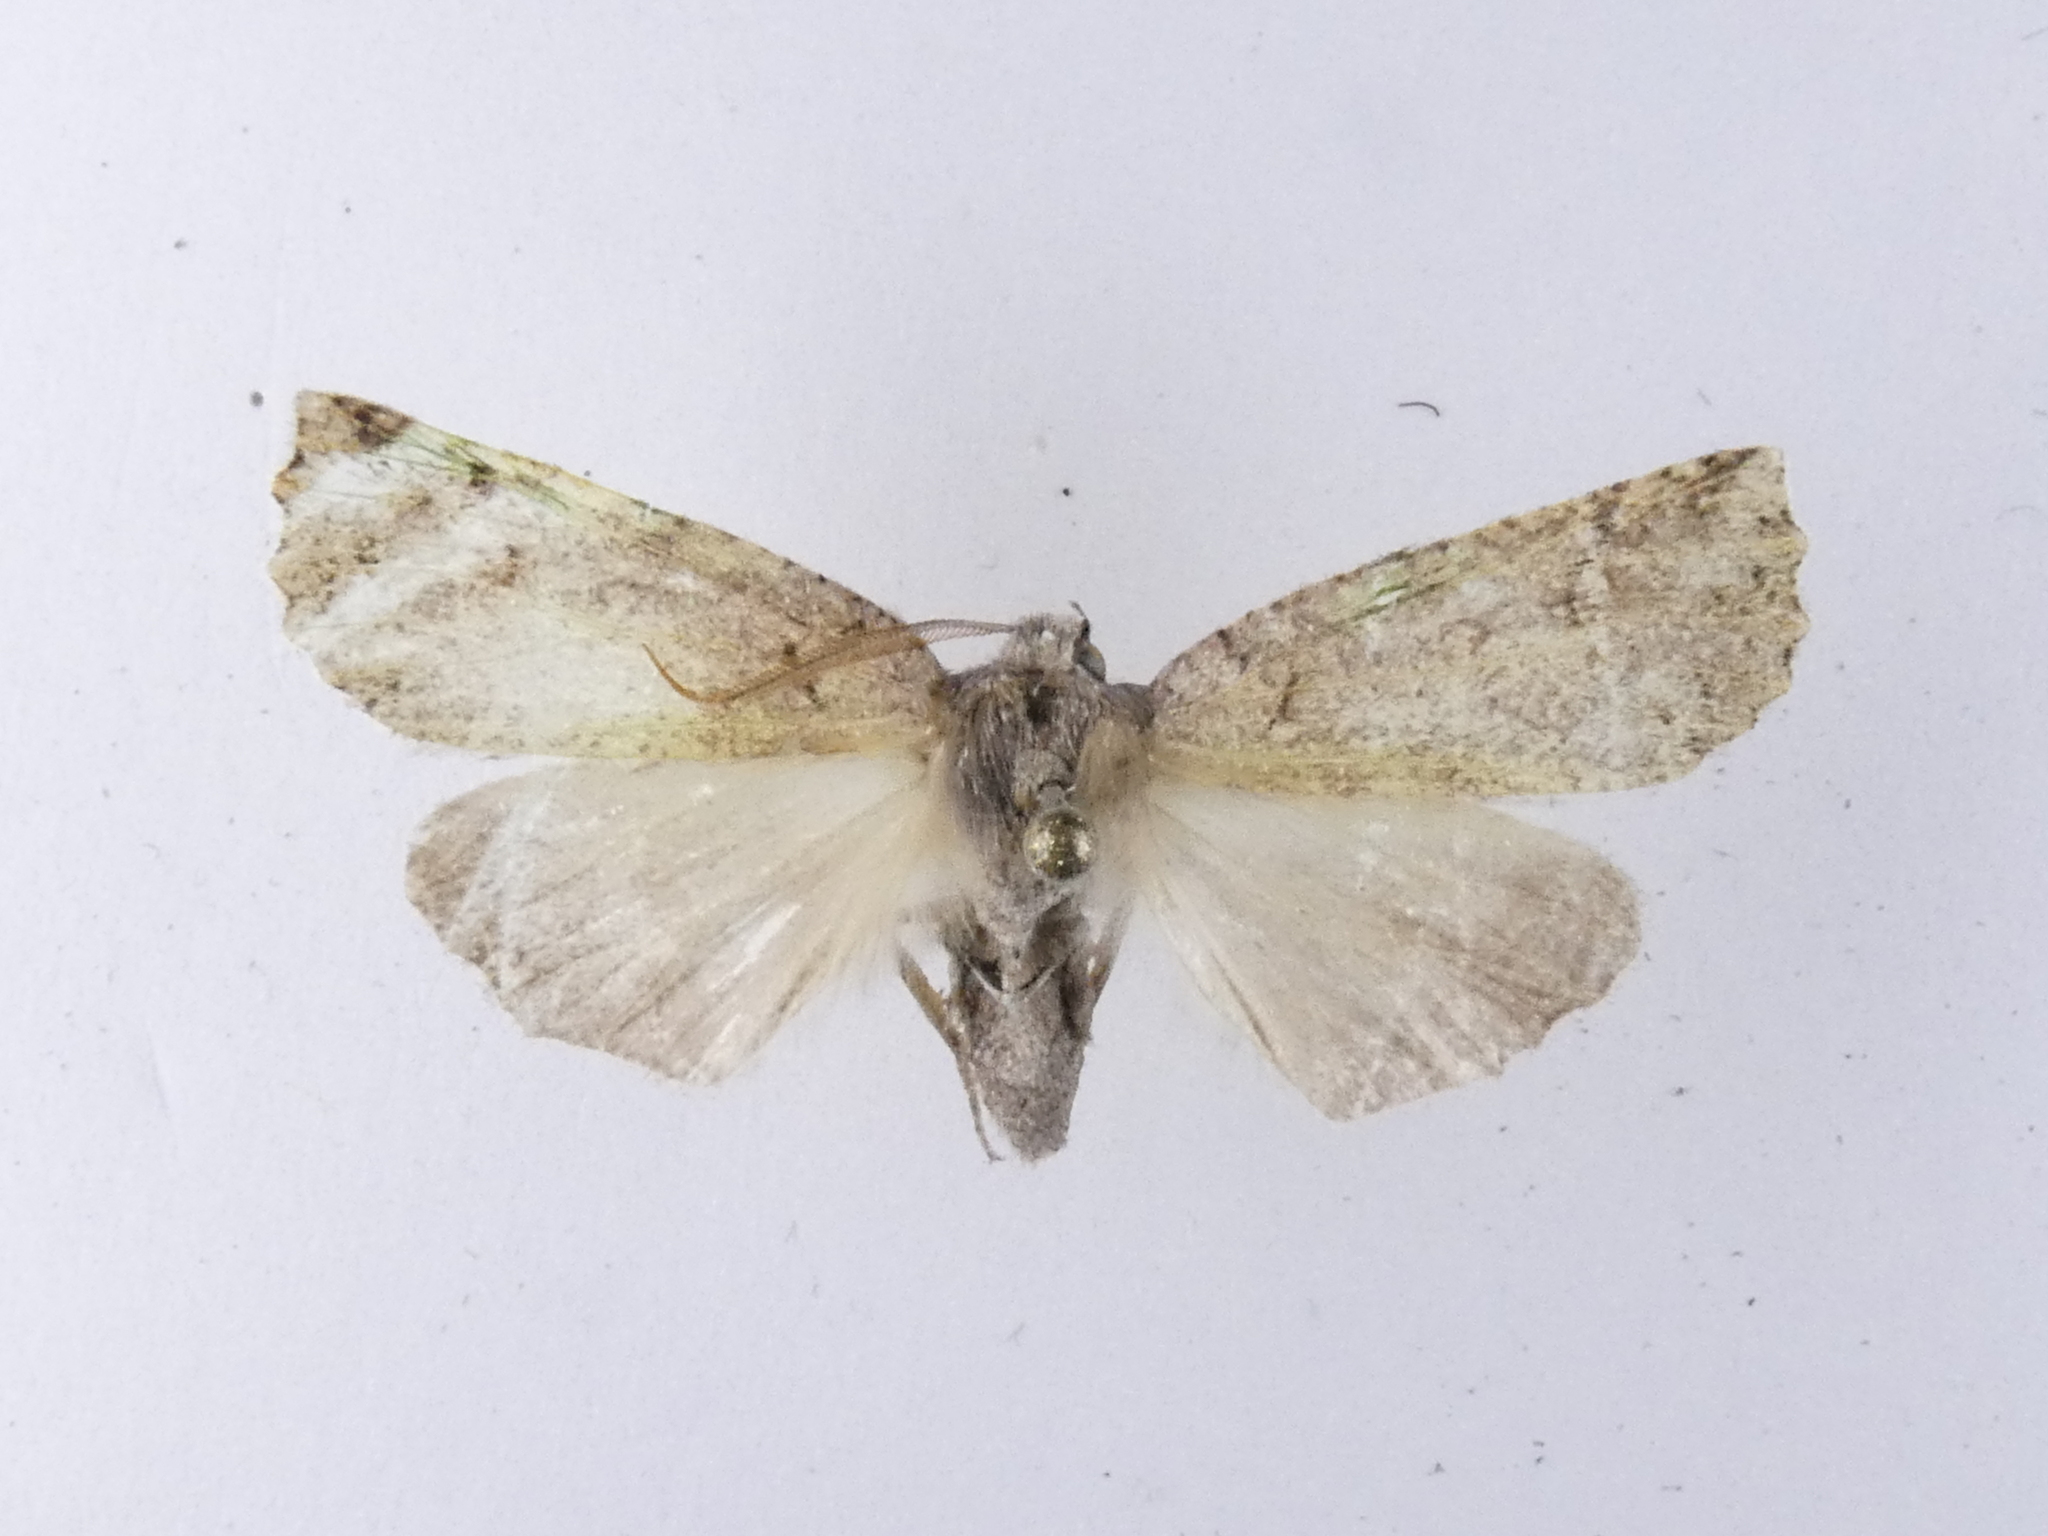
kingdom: Animalia
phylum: Arthropoda
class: Insecta
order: Lepidoptera
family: Geometridae
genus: Declana
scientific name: Declana floccosa
